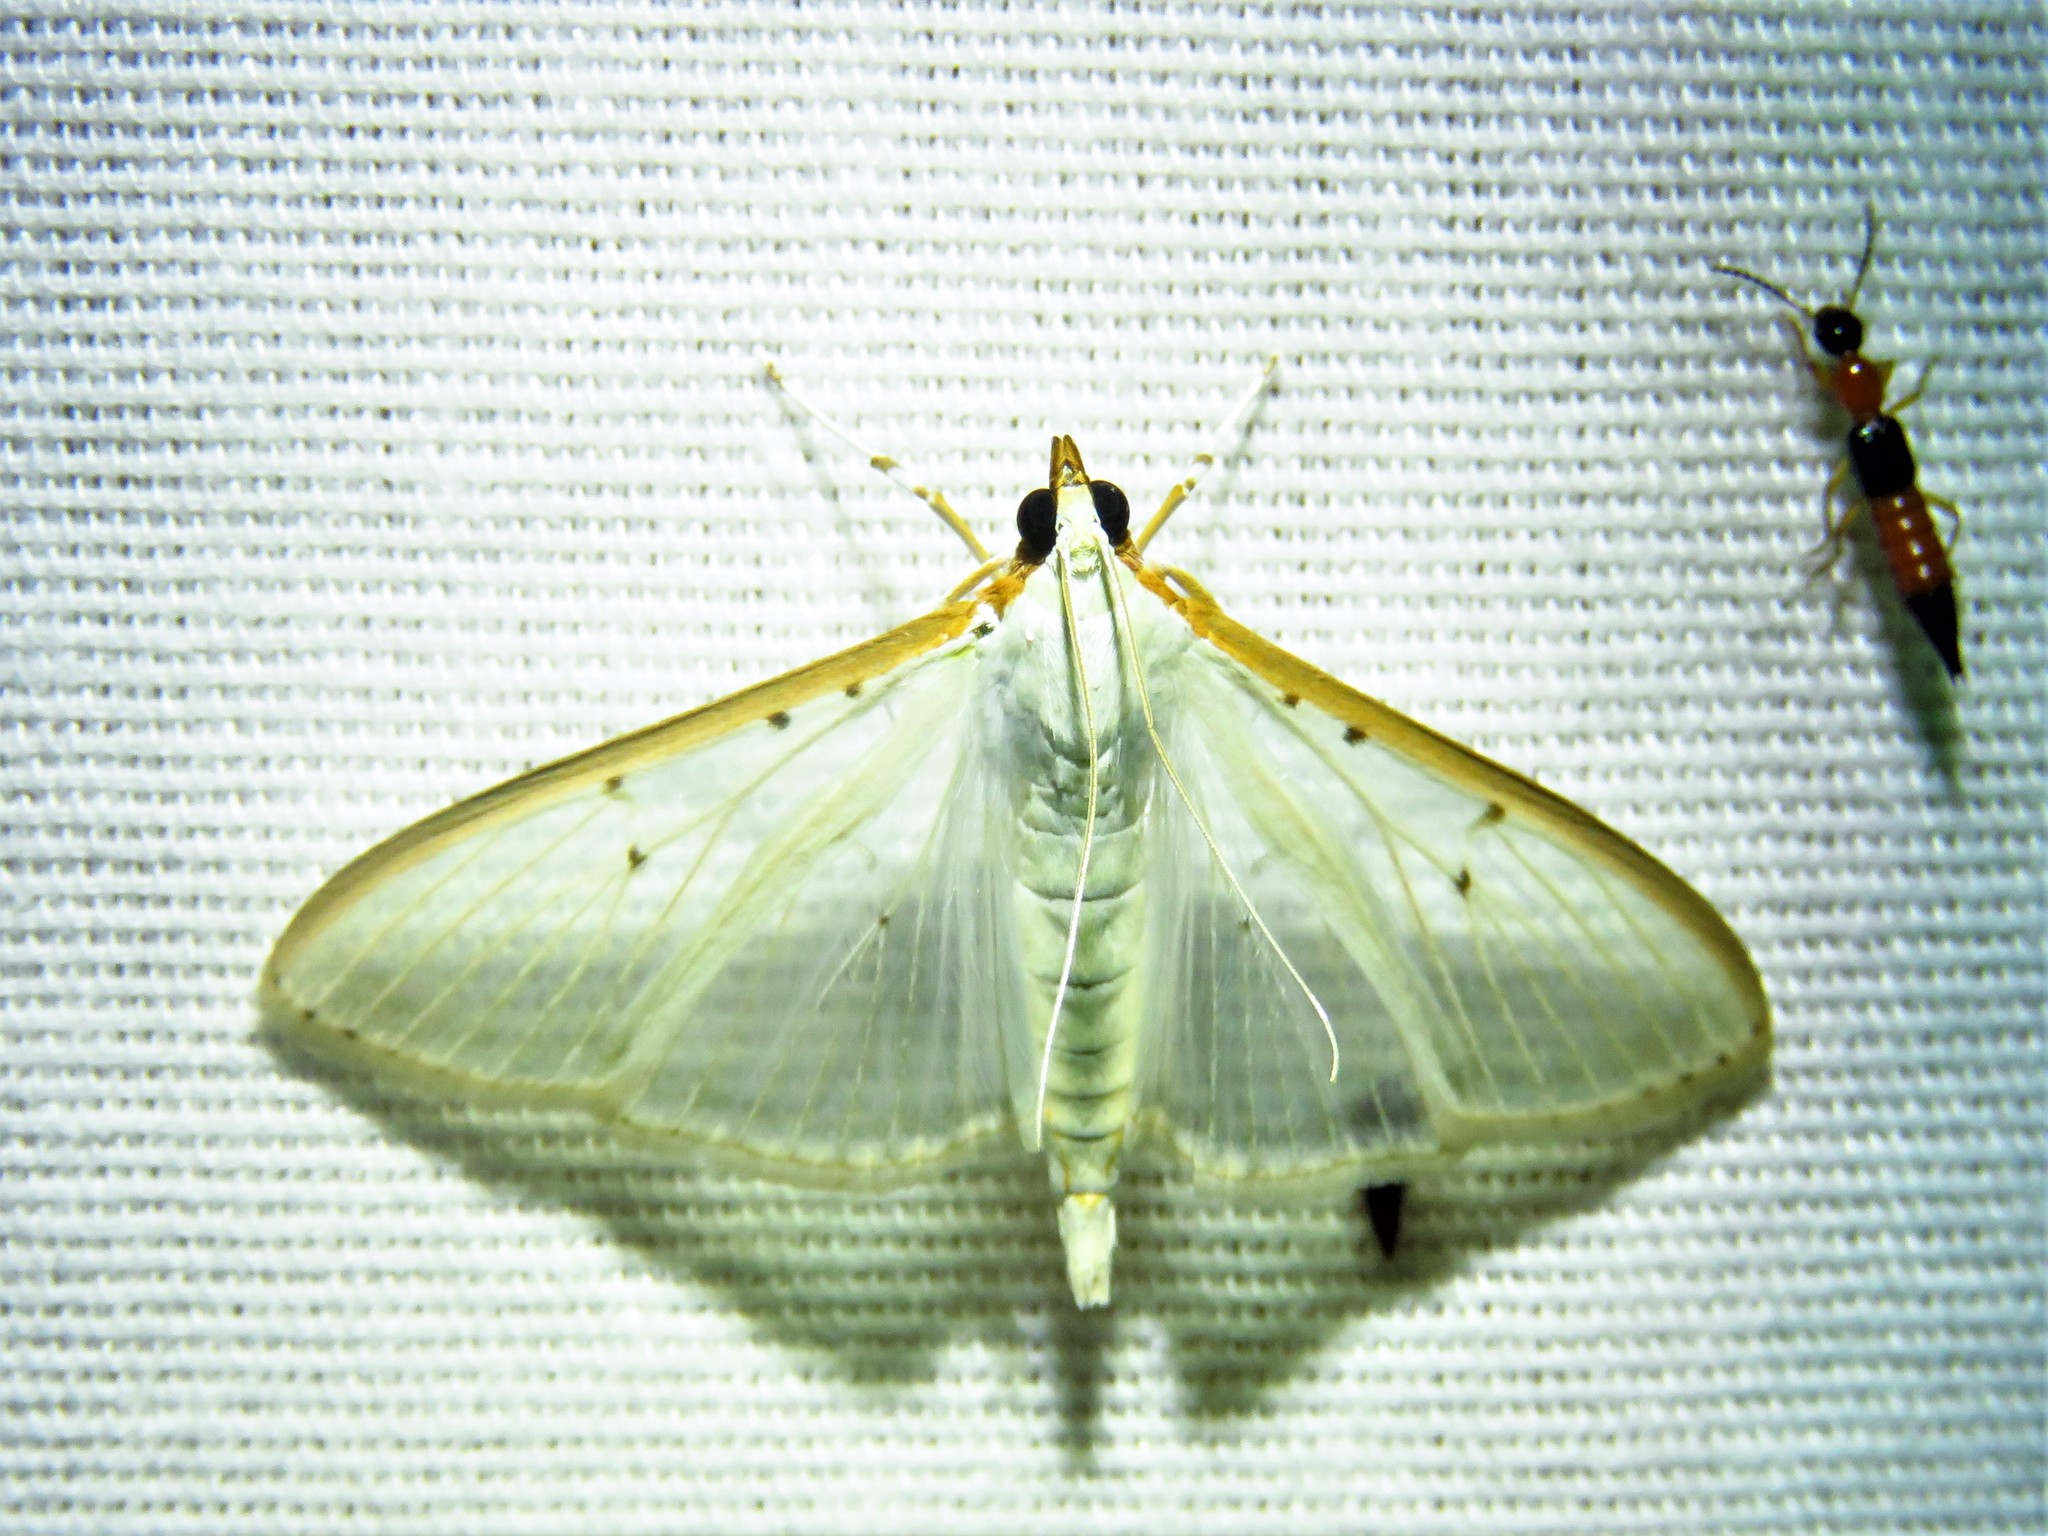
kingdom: Animalia
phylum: Arthropoda
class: Insecta
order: Lepidoptera
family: Crambidae
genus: Palpita
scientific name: Palpita quadristigmalis
